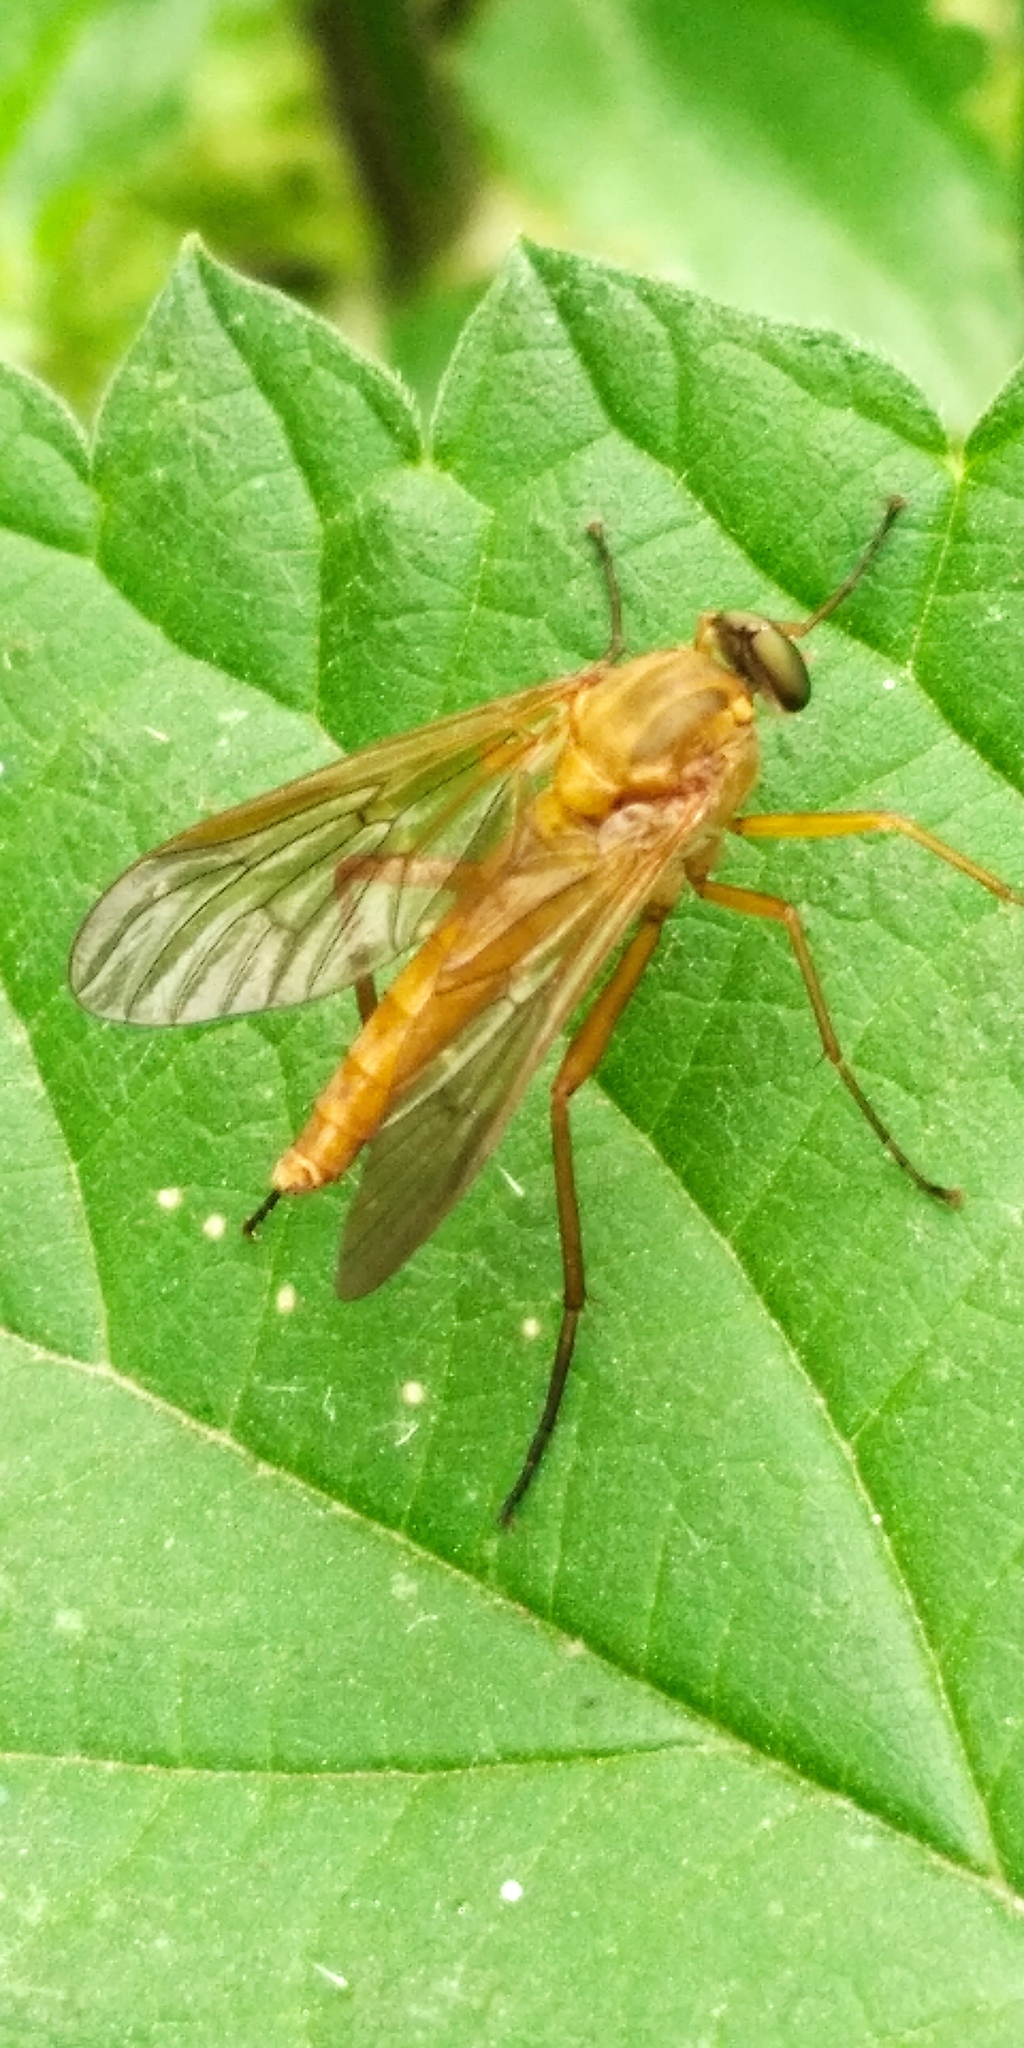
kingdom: Animalia
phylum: Arthropoda
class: Insecta
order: Diptera
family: Rhagionidae
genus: Rhagio
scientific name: Rhagio tringaria
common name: Marsh snipefly
